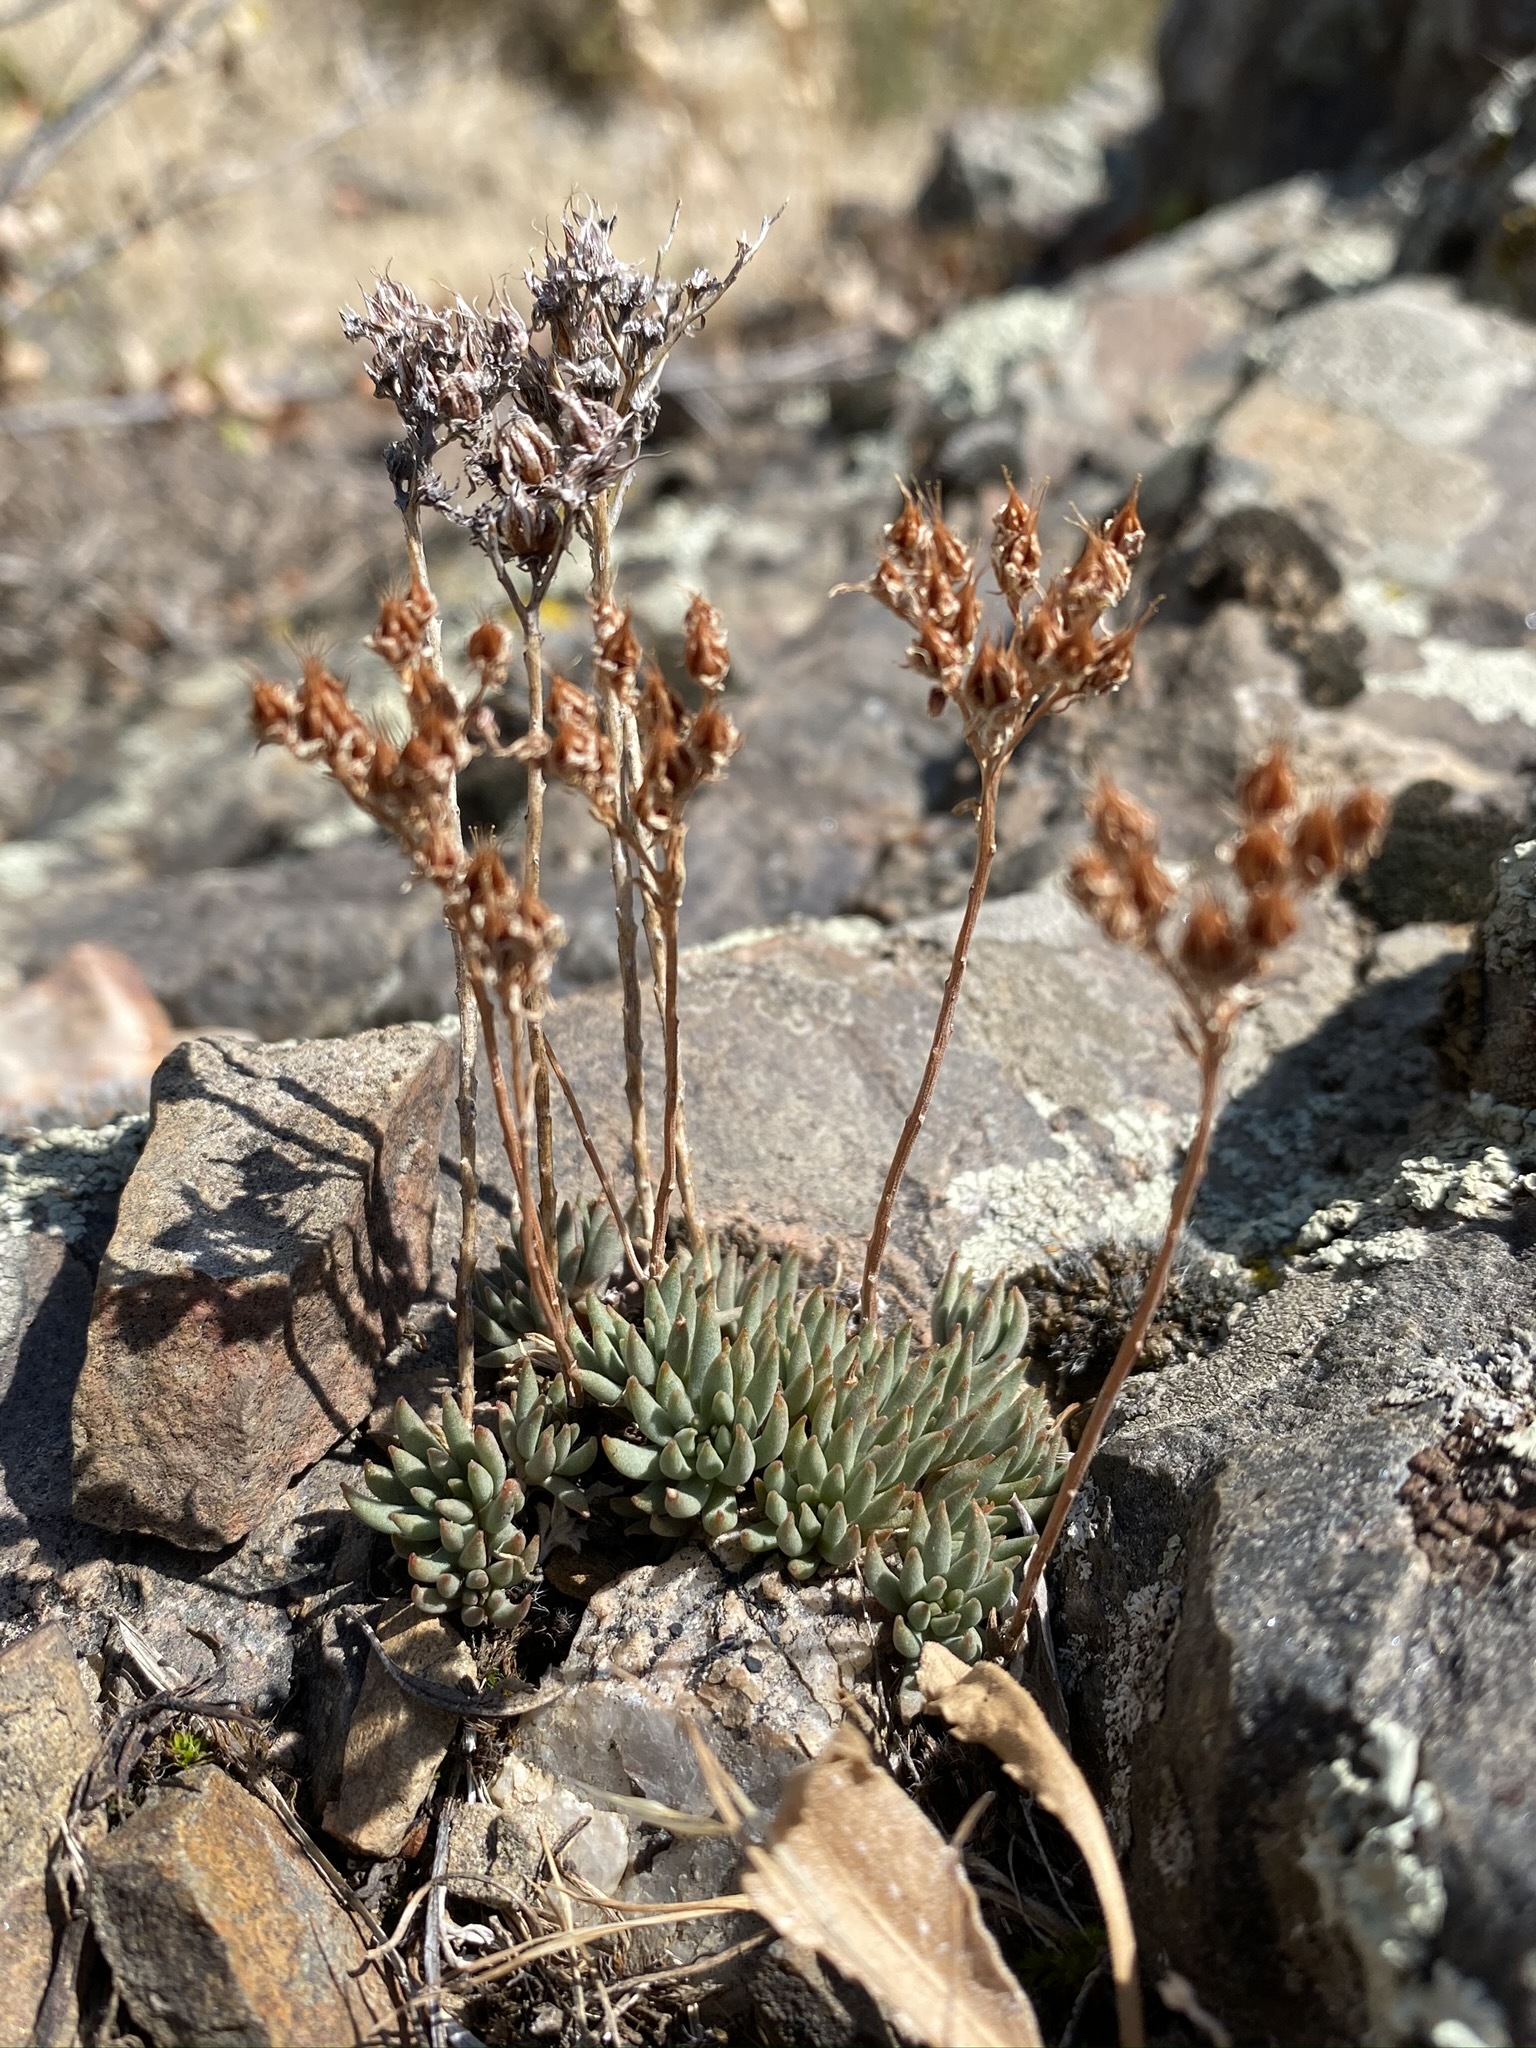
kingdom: Plantae
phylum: Tracheophyta
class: Magnoliopsida
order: Saxifragales
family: Crassulaceae
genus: Sedum
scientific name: Sedum lanceolatum
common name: Common stonecrop
